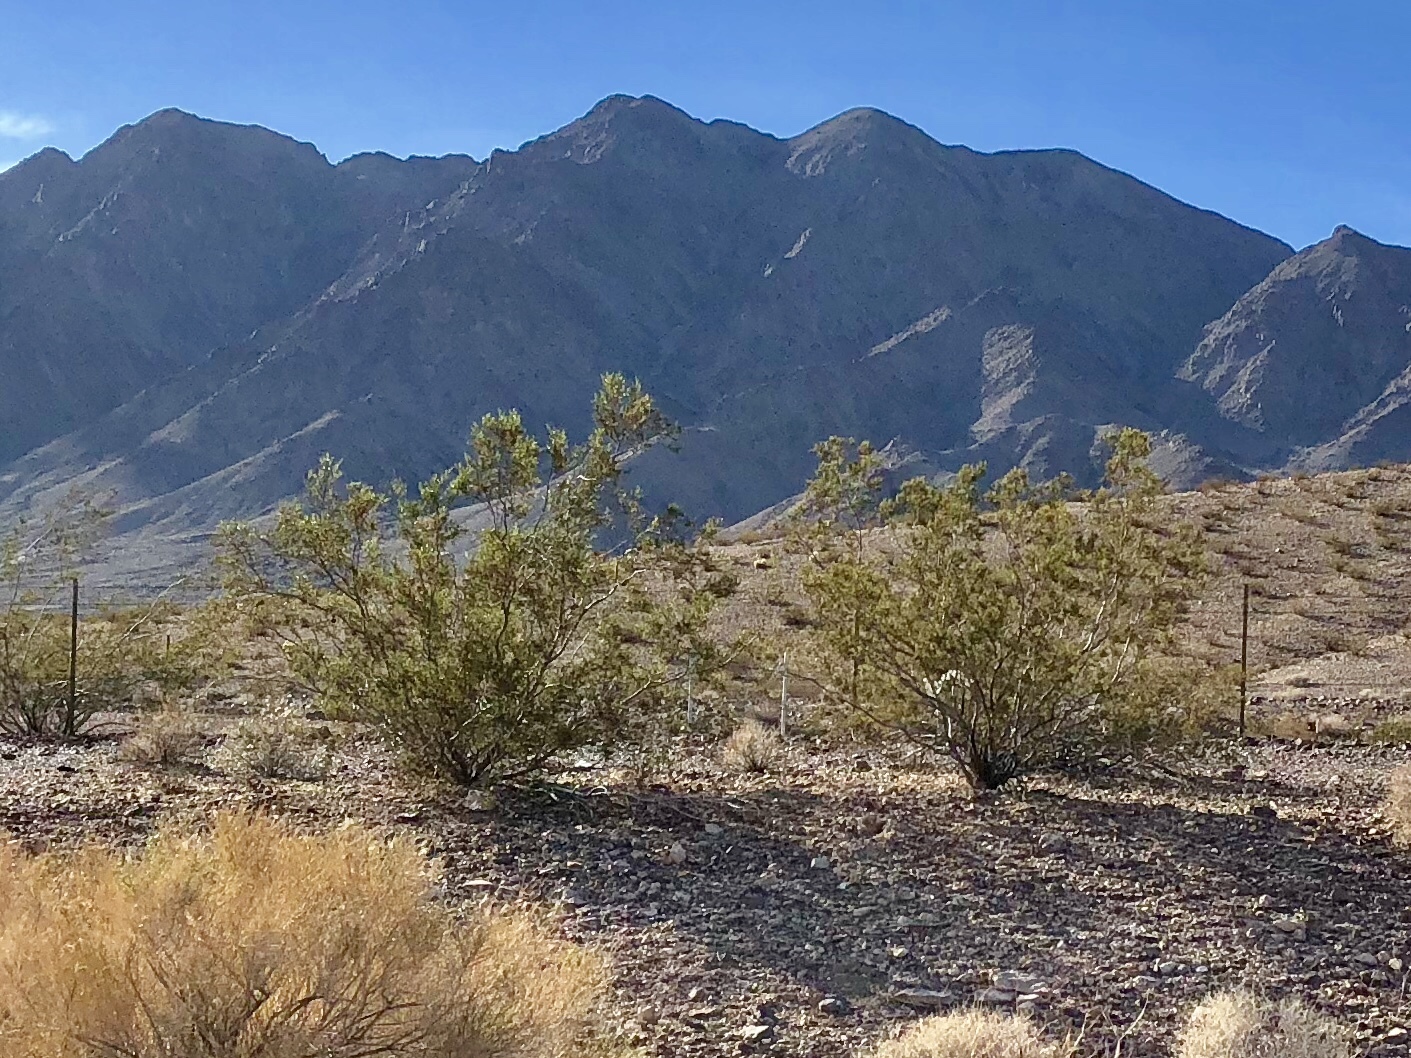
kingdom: Plantae
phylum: Tracheophyta
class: Magnoliopsida
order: Zygophyllales
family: Zygophyllaceae
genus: Larrea
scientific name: Larrea tridentata
